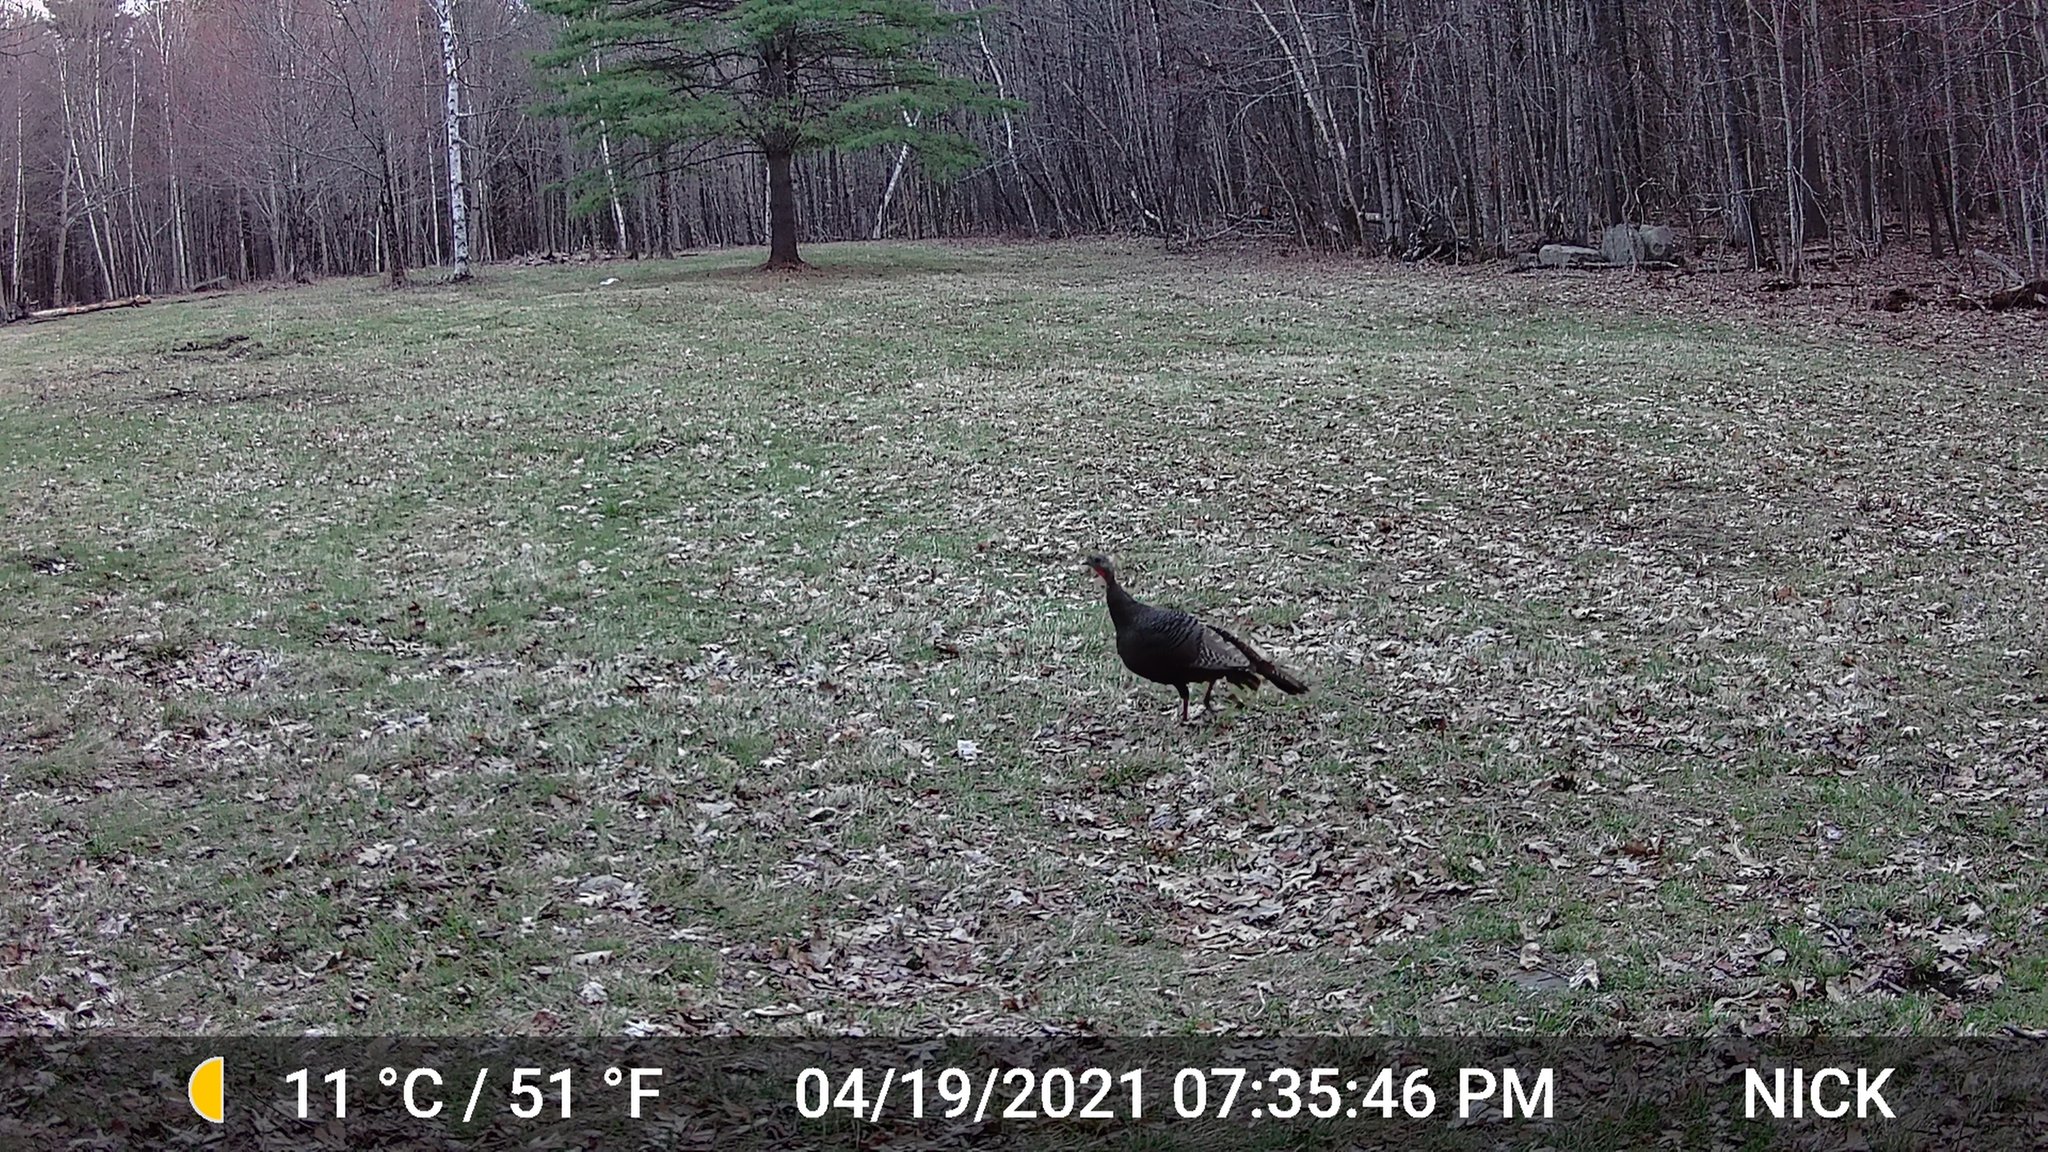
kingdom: Animalia
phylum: Chordata
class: Aves
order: Galliformes
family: Phasianidae
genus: Meleagris
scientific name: Meleagris gallopavo
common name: Wild turkey
